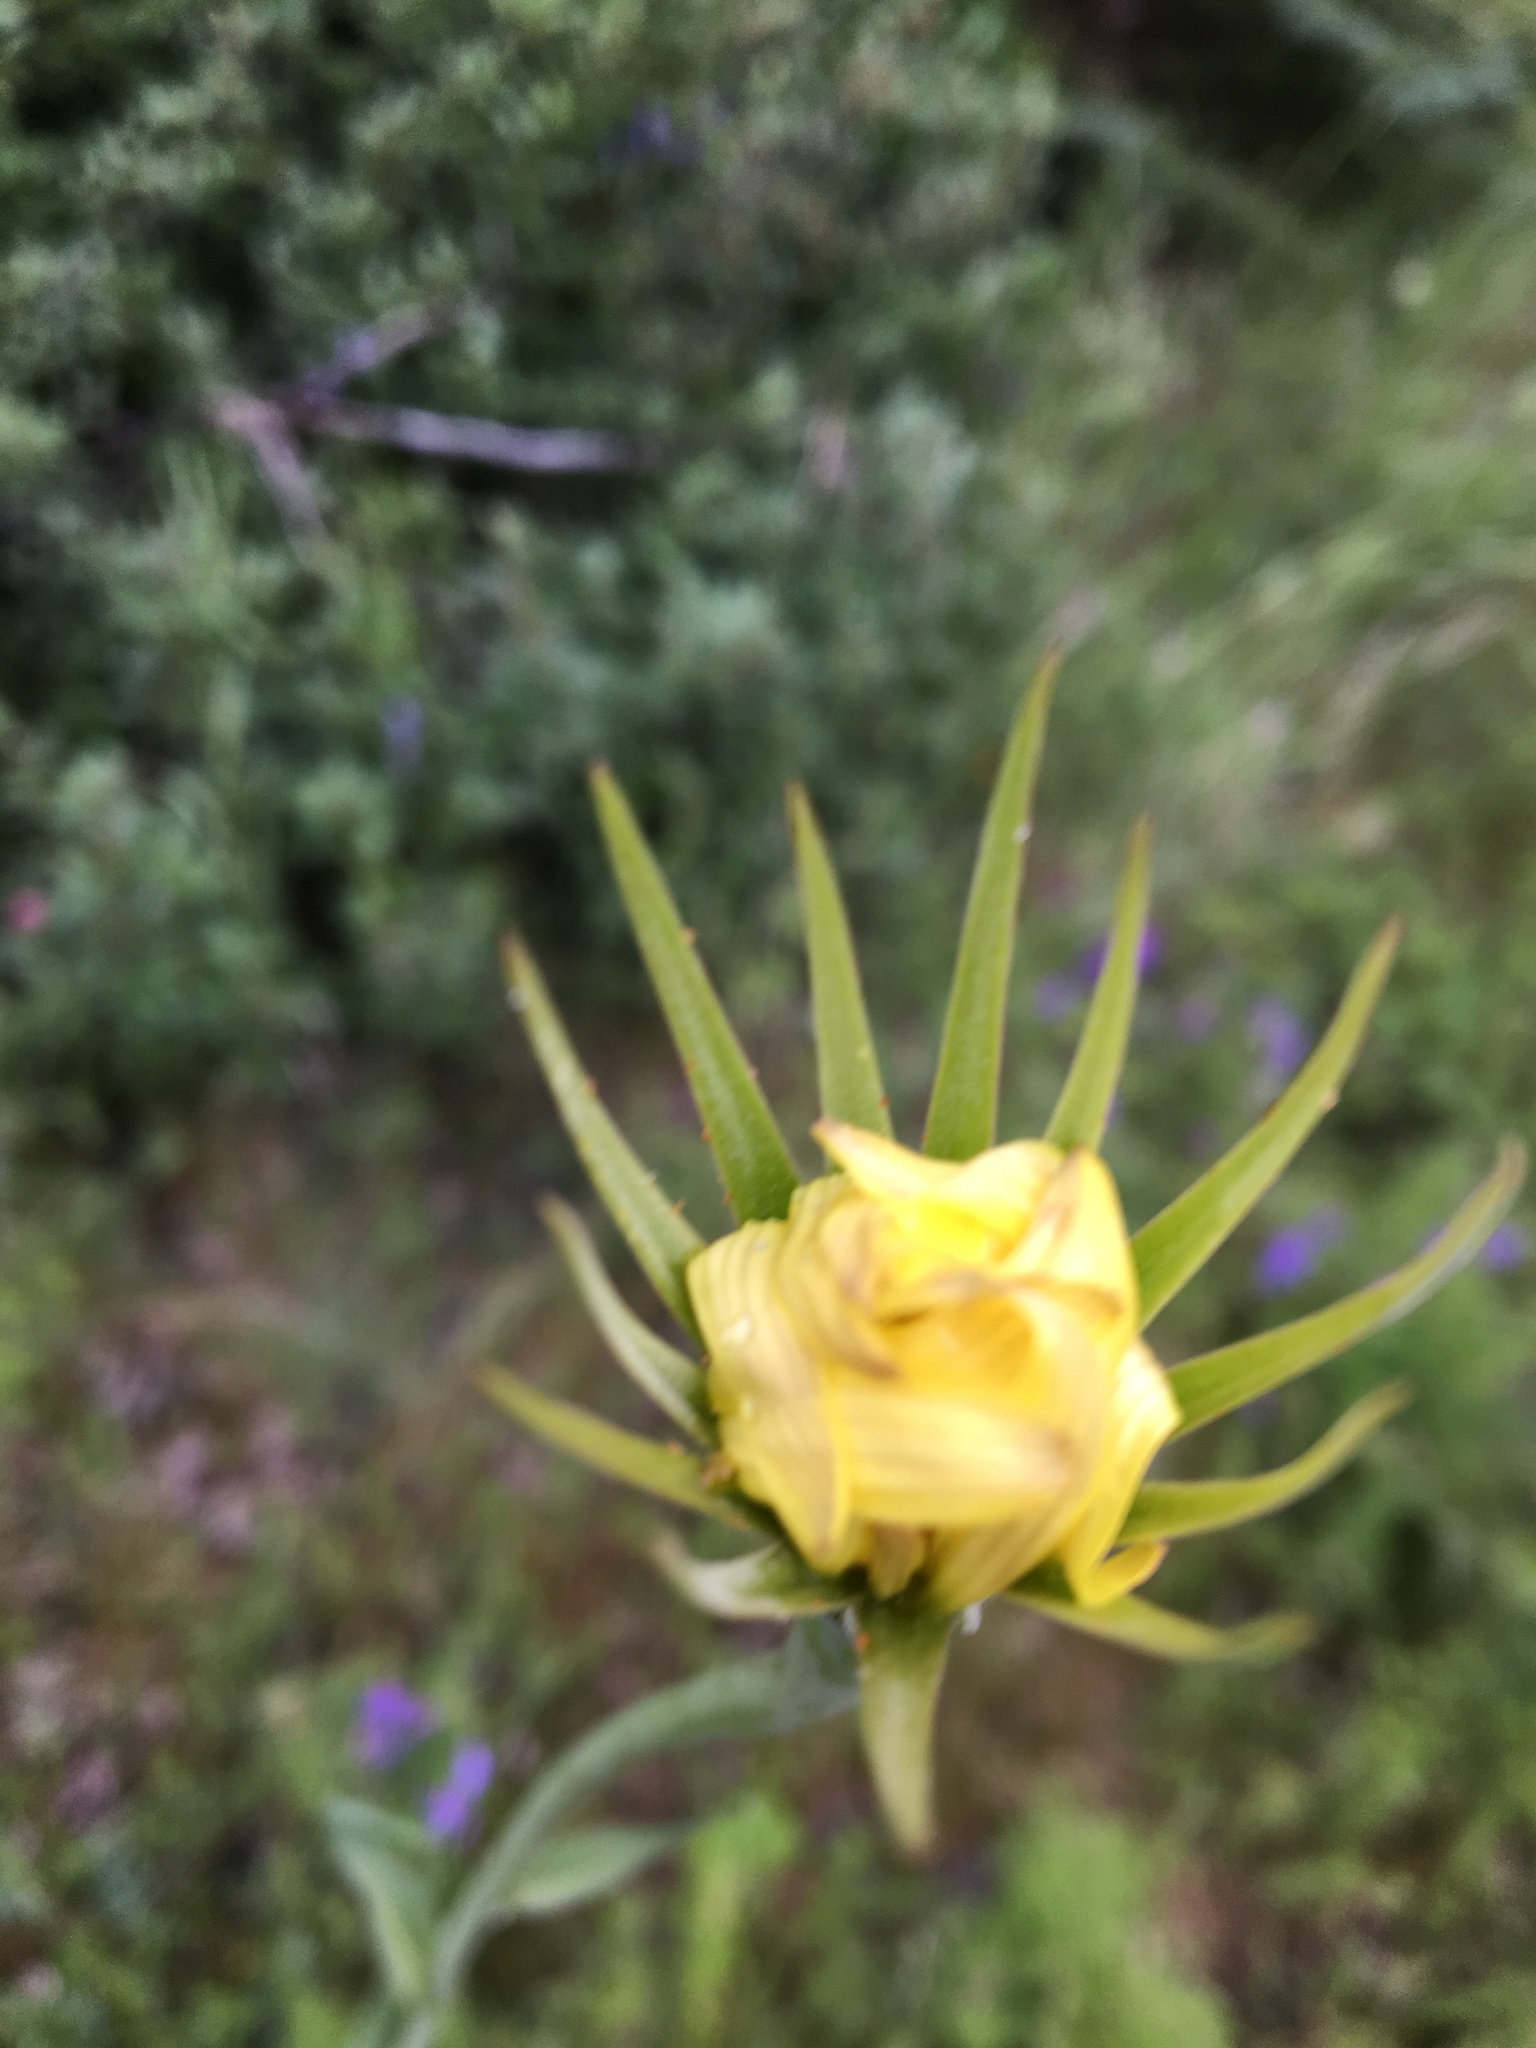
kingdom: Plantae
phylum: Tracheophyta
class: Magnoliopsida
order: Asterales
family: Asteraceae
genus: Tragopogon
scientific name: Tragopogon dubius
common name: Yellow salsify
